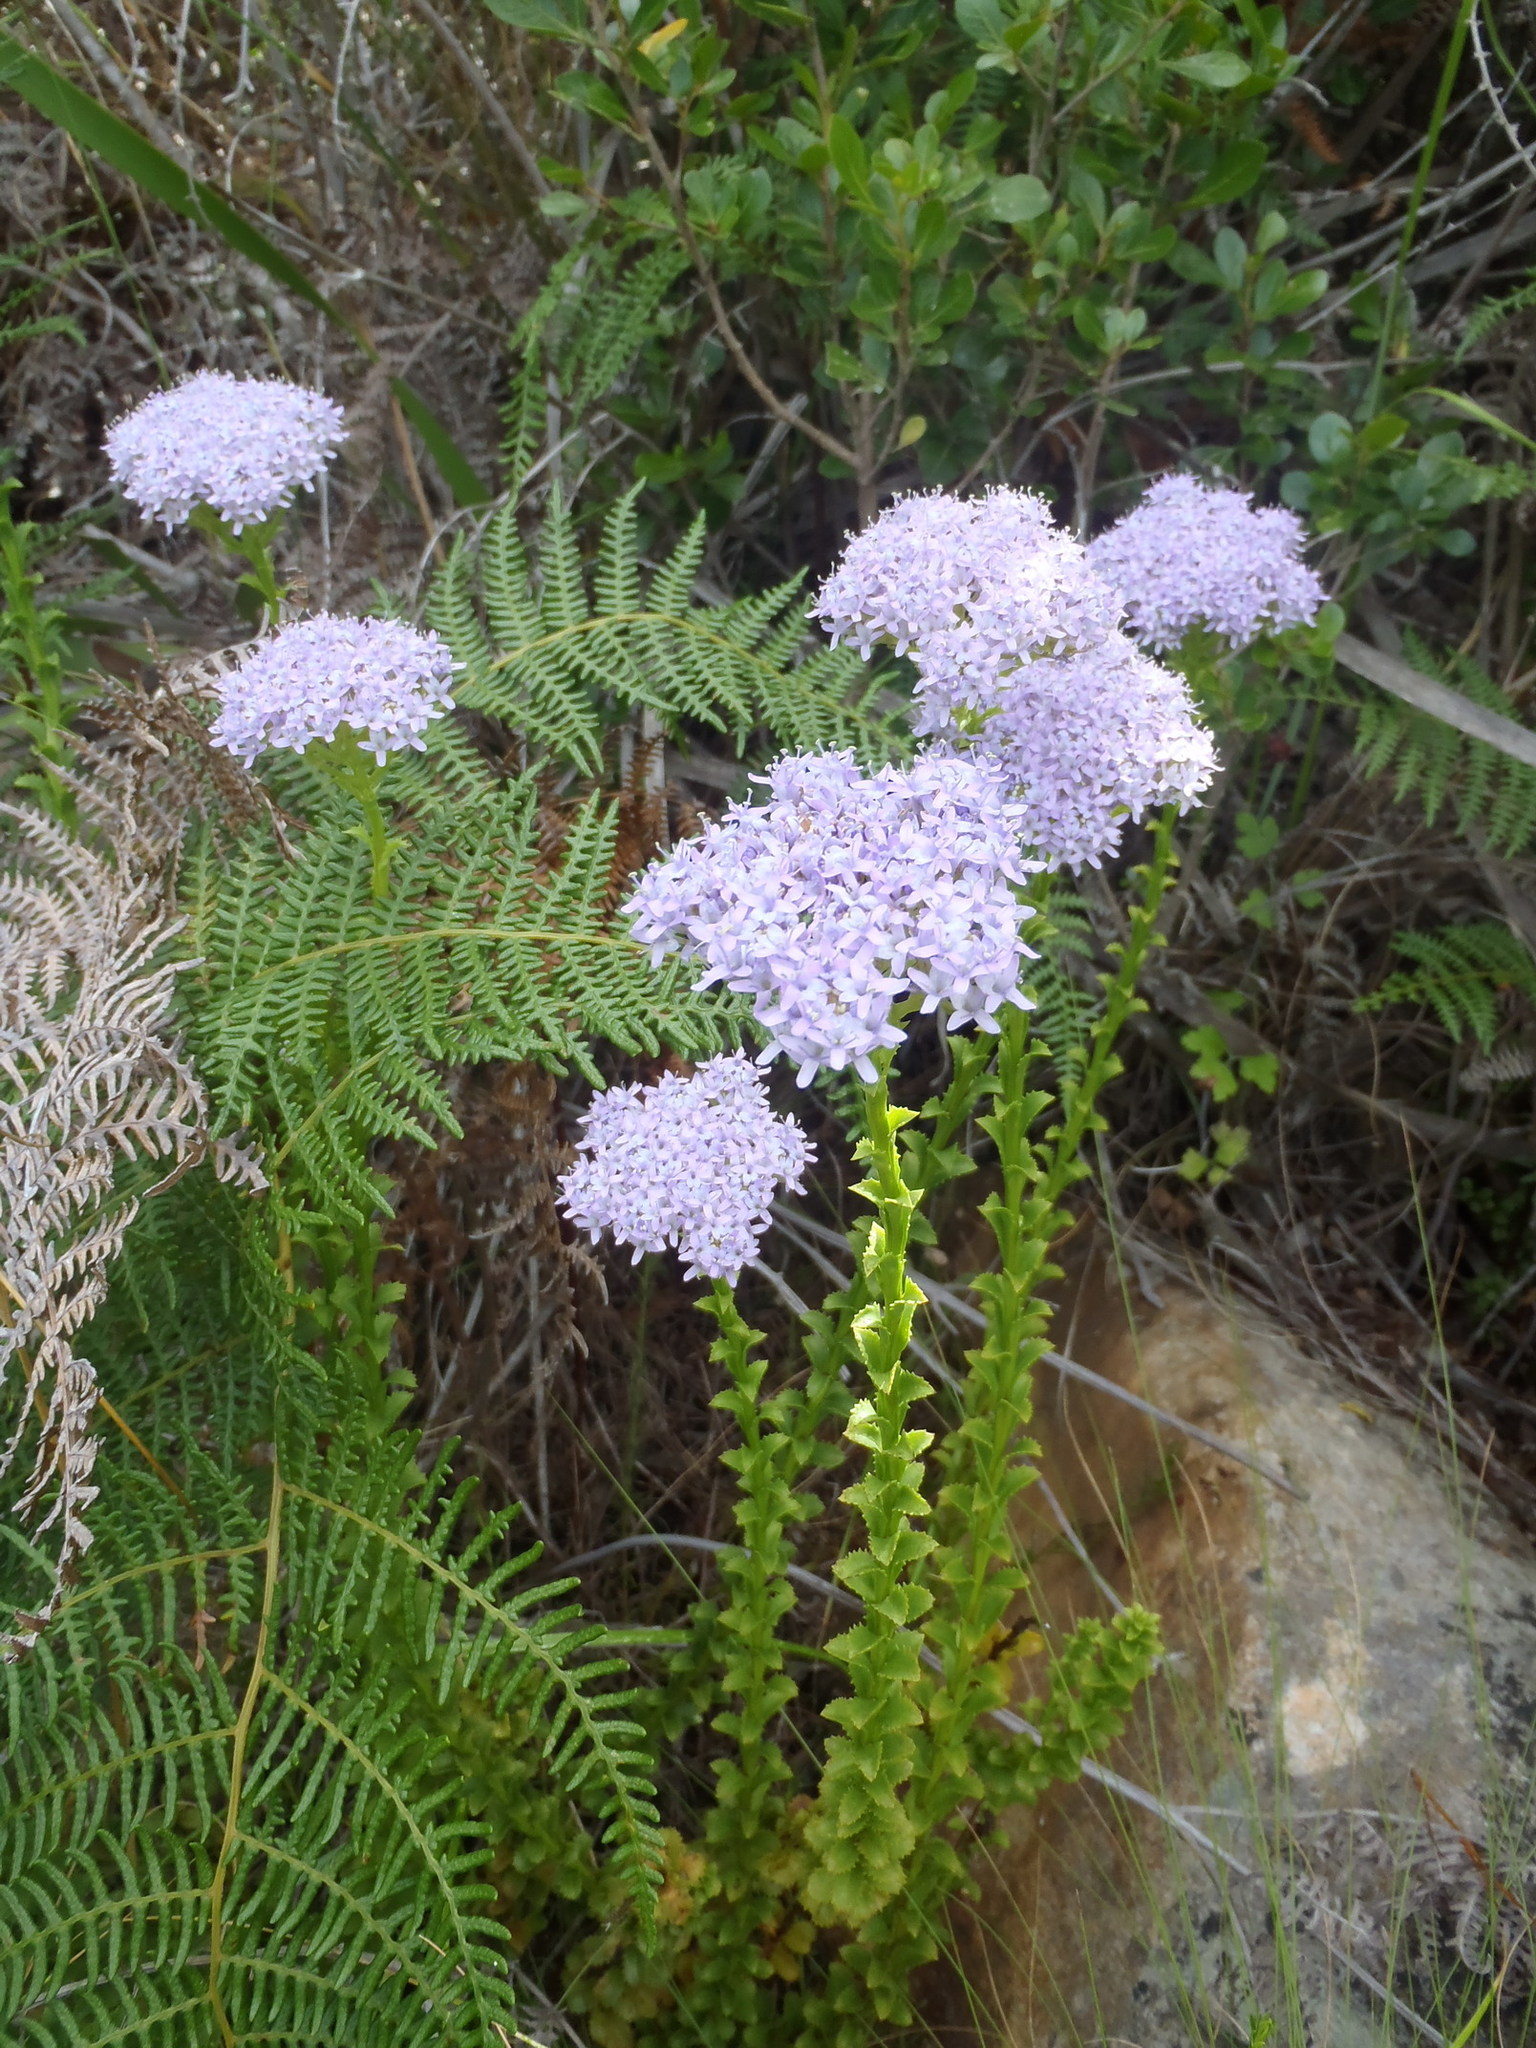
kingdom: Plantae
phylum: Tracheophyta
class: Magnoliopsida
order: Lamiales
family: Scrophulariaceae
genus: Pseudoselago
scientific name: Pseudoselago serrata
